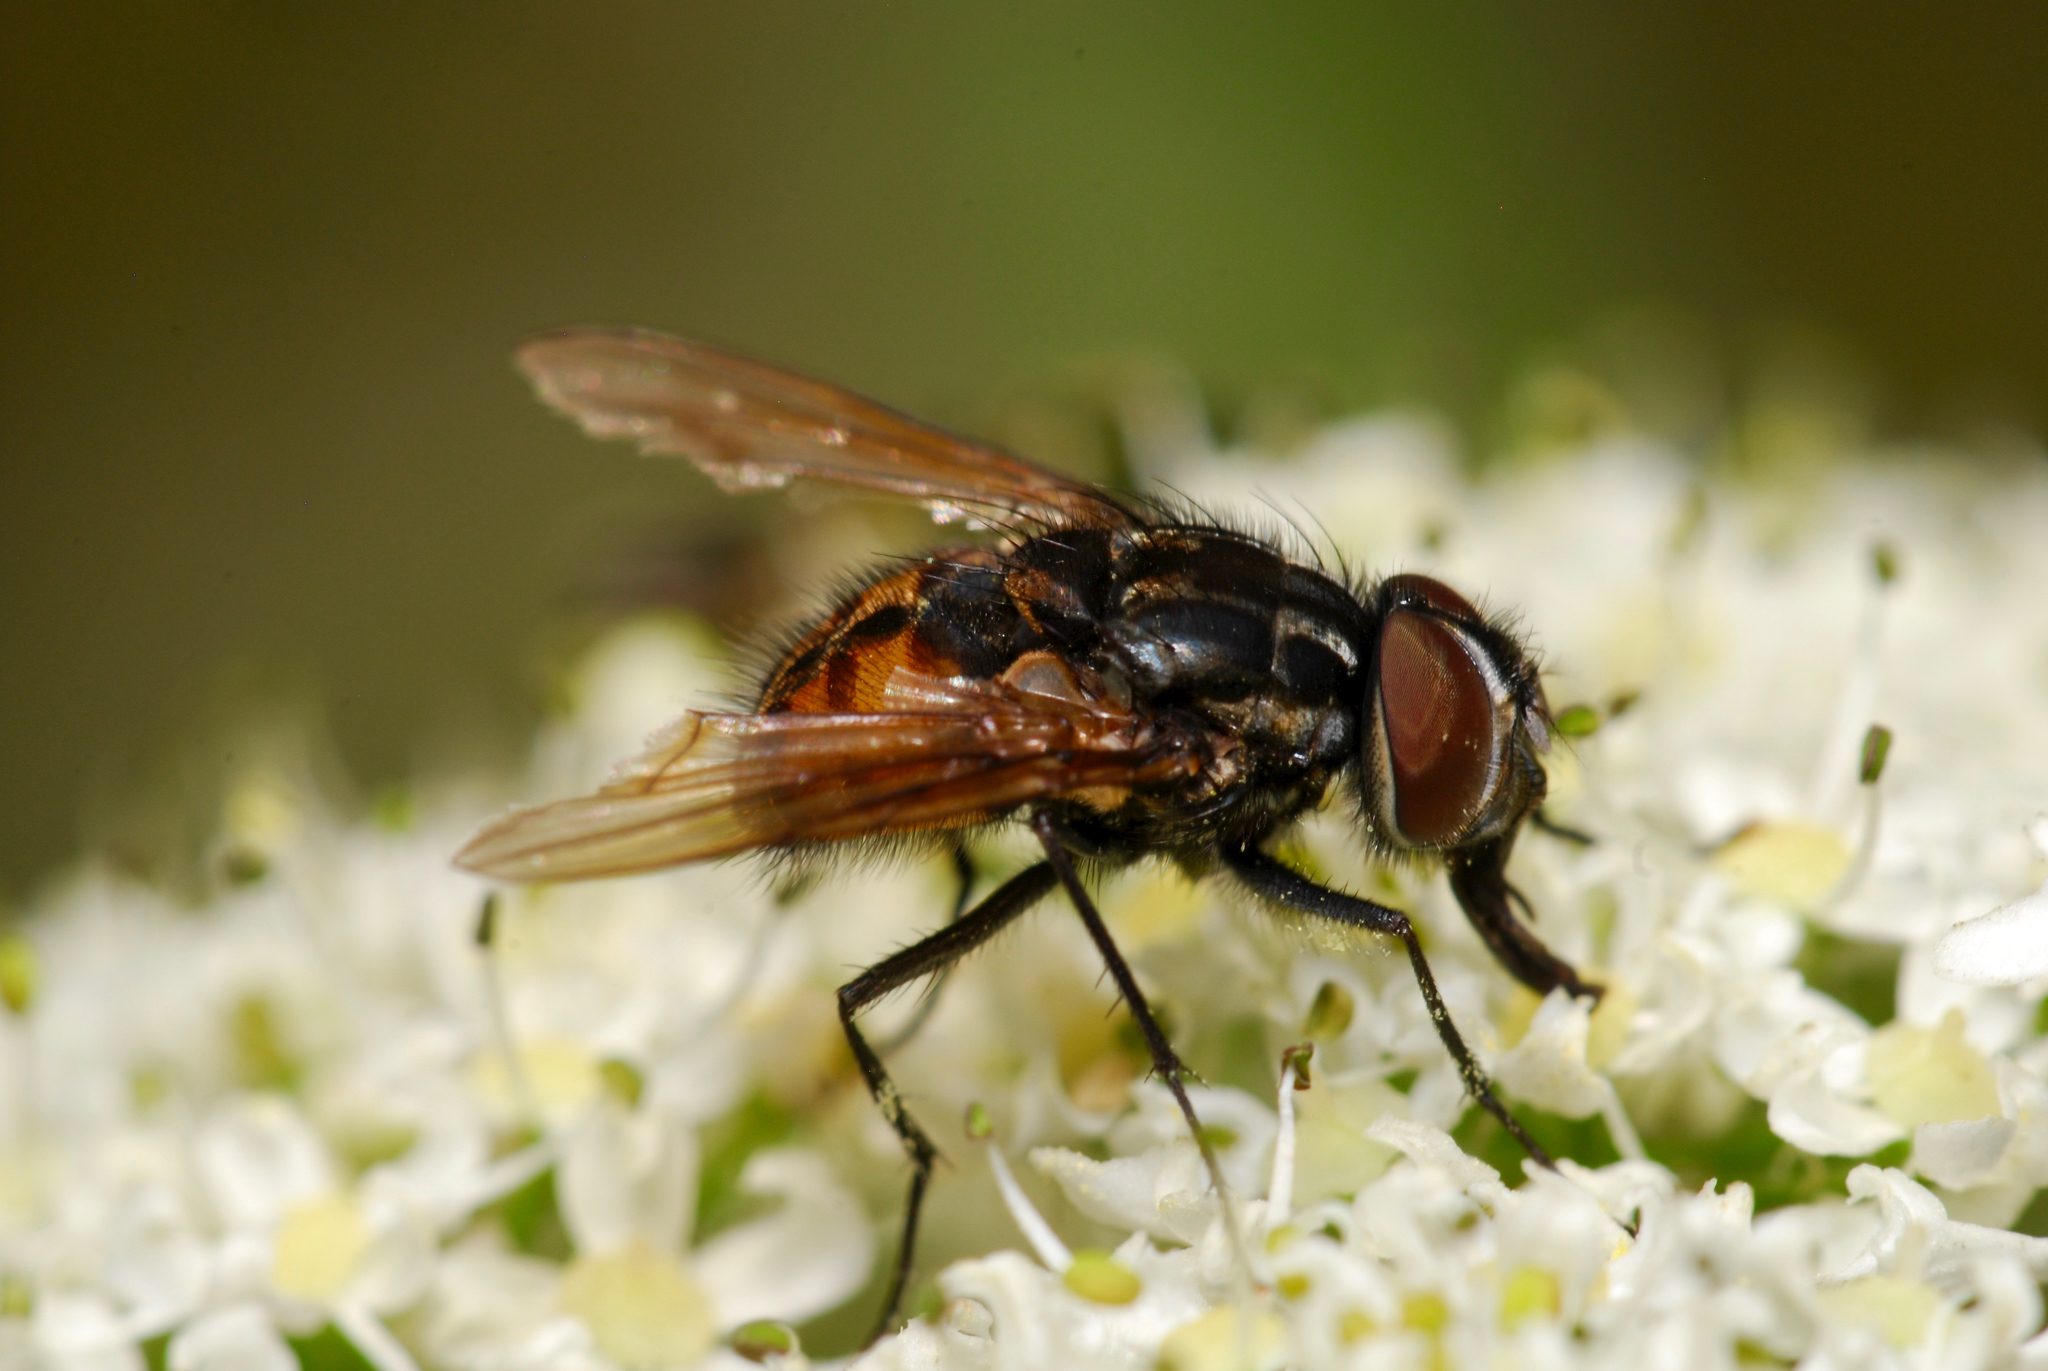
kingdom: Animalia
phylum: Arthropoda
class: Insecta
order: Diptera
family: Muscidae
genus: Graphomya
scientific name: Graphomya maculata
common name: Muscid fly
